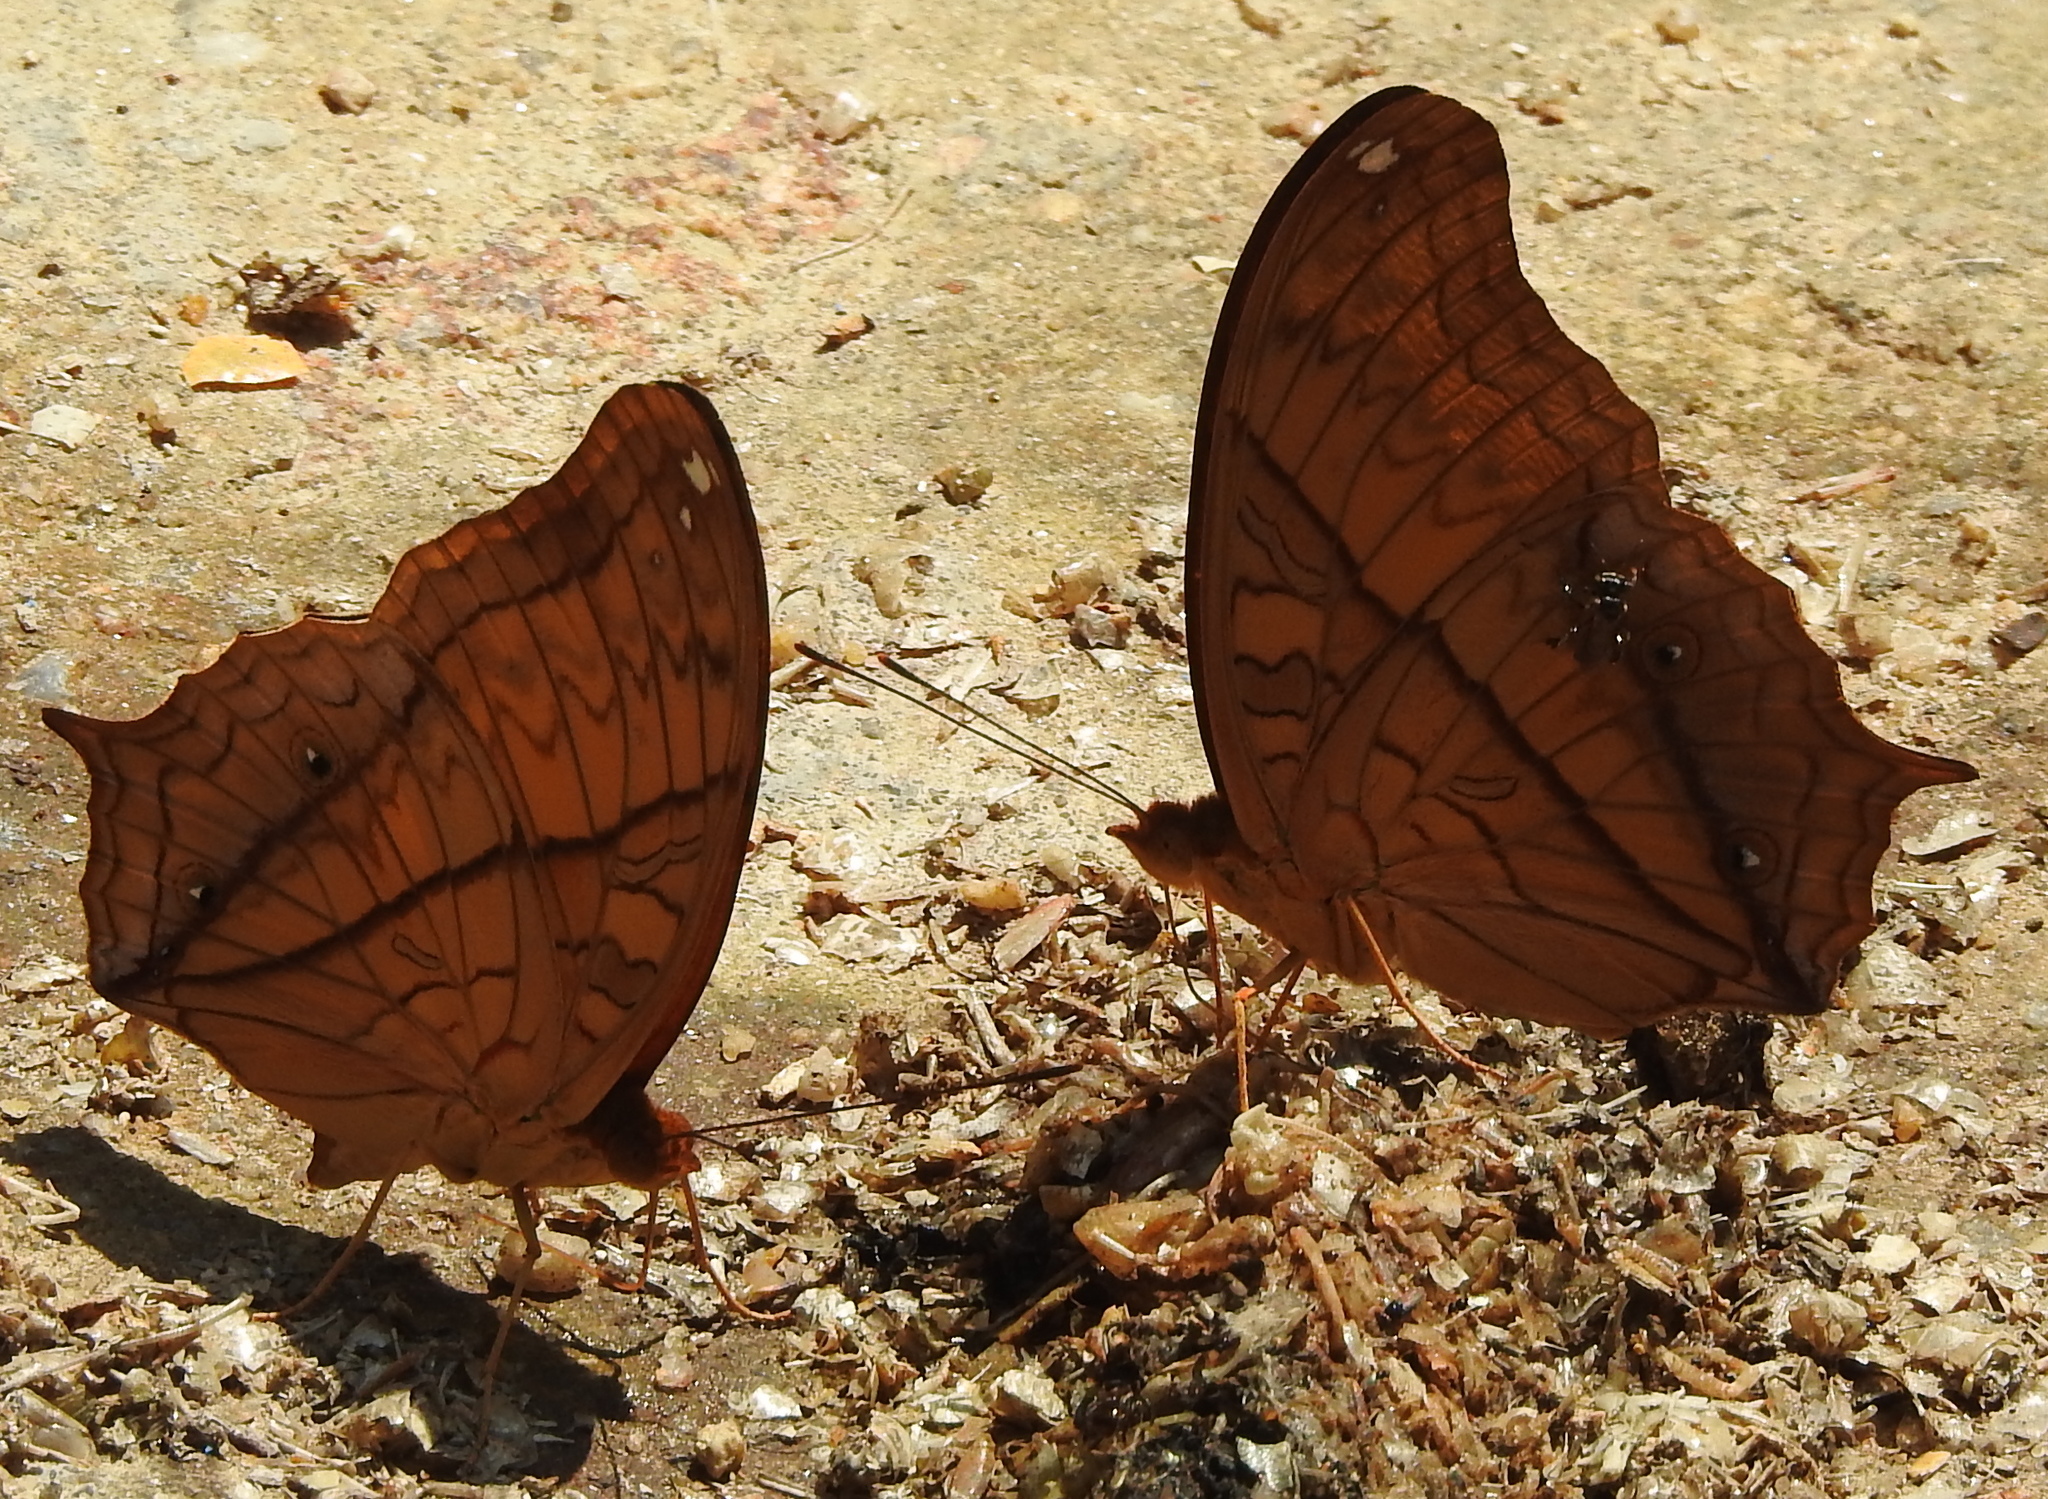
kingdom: Animalia
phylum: Arthropoda
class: Insecta
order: Lepidoptera
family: Nymphalidae
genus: Vindula
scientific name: Vindula deione
